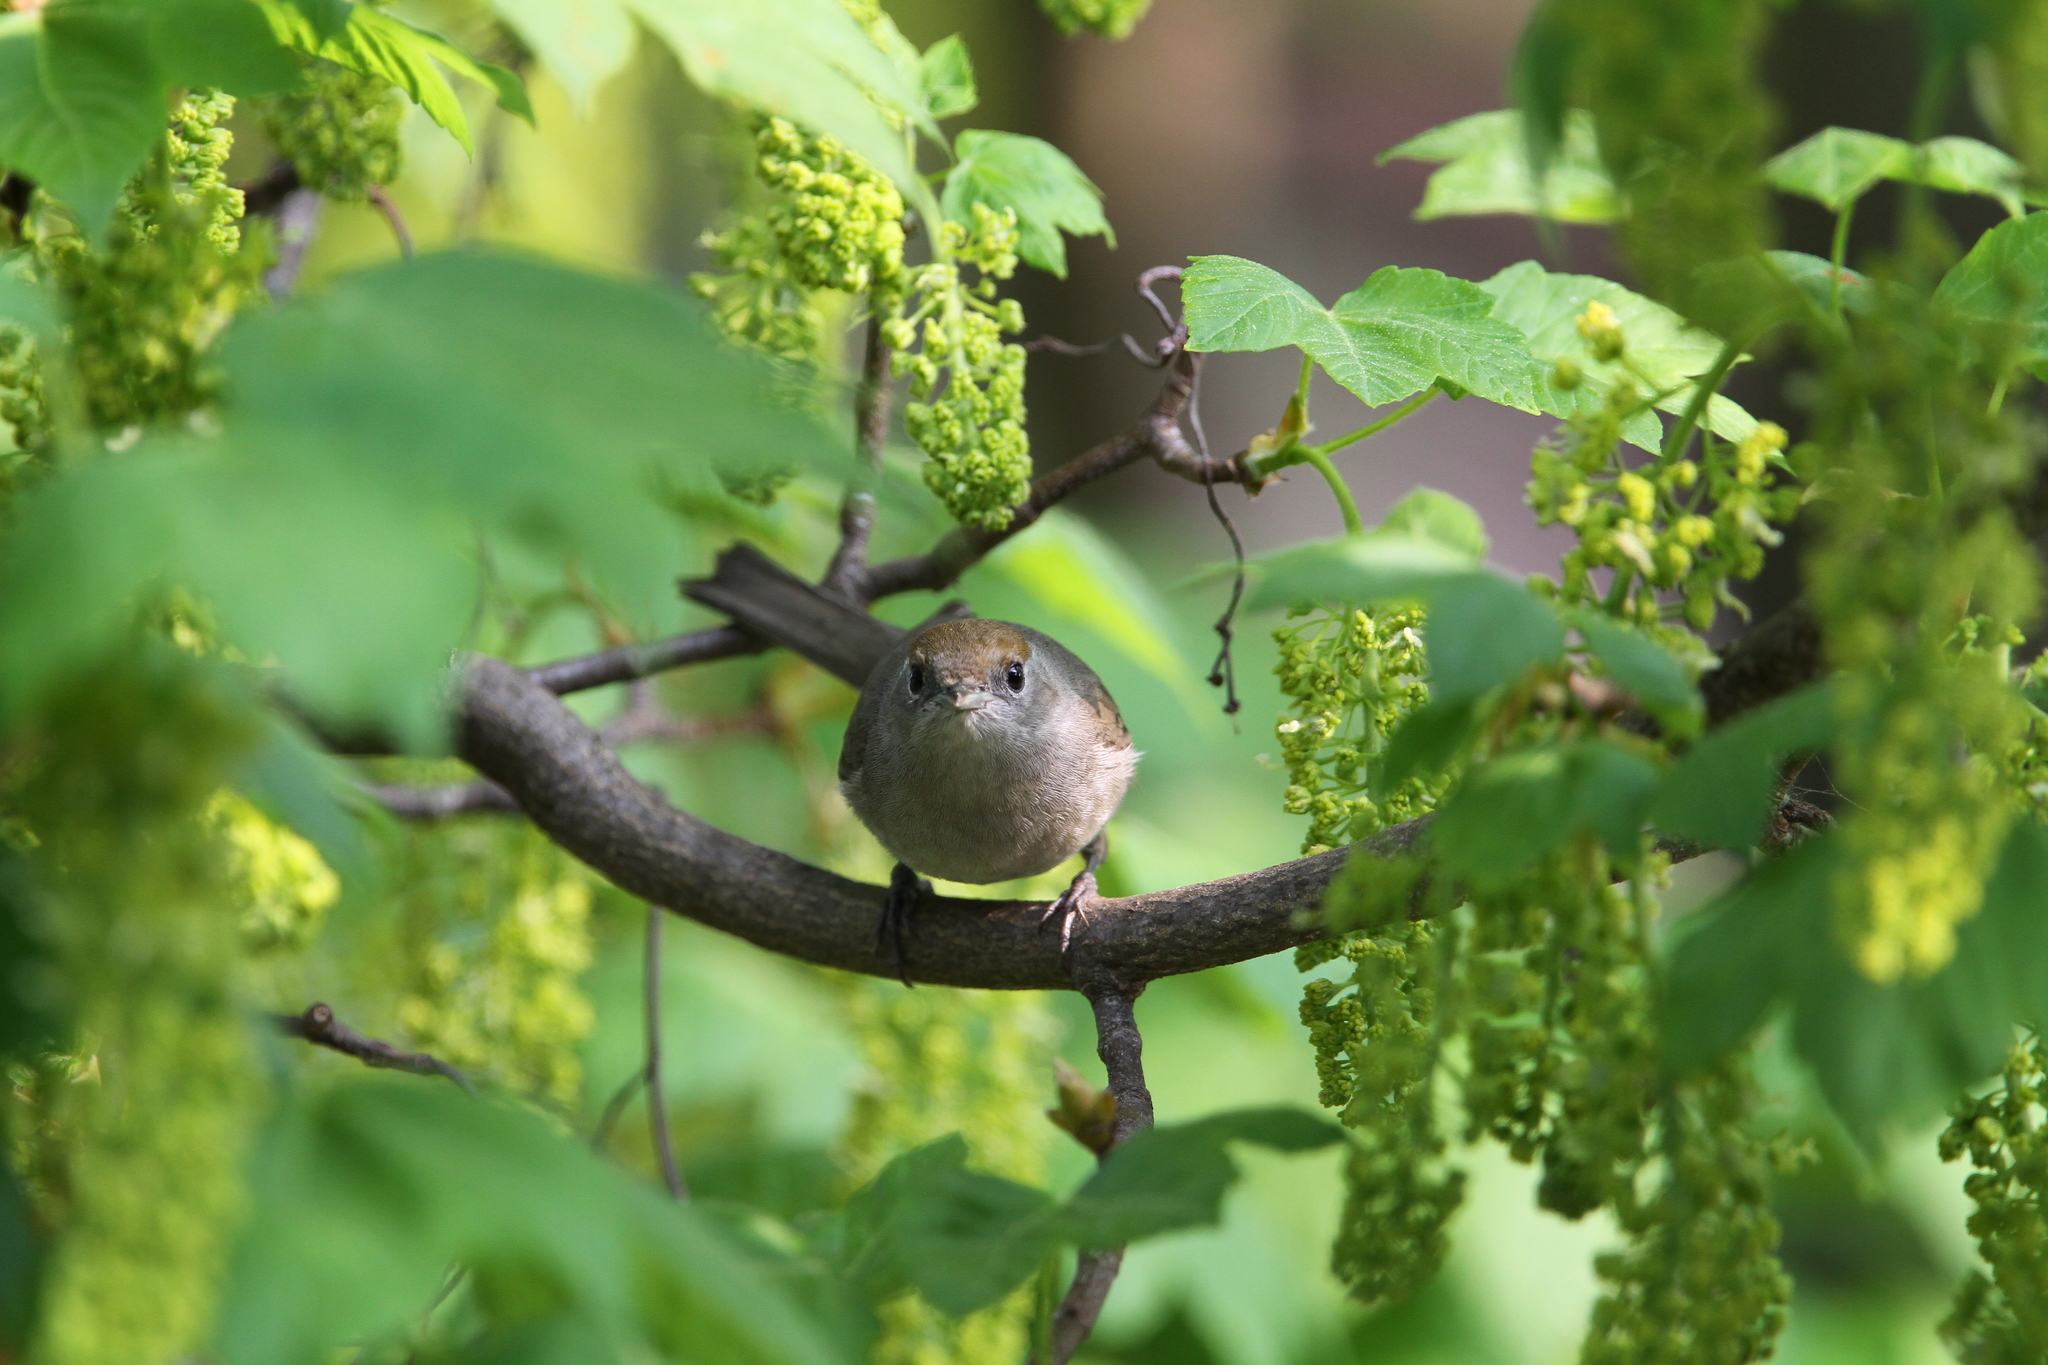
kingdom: Animalia
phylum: Chordata
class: Aves
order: Passeriformes
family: Sylviidae
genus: Sylvia
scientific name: Sylvia atricapilla
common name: Eurasian blackcap
